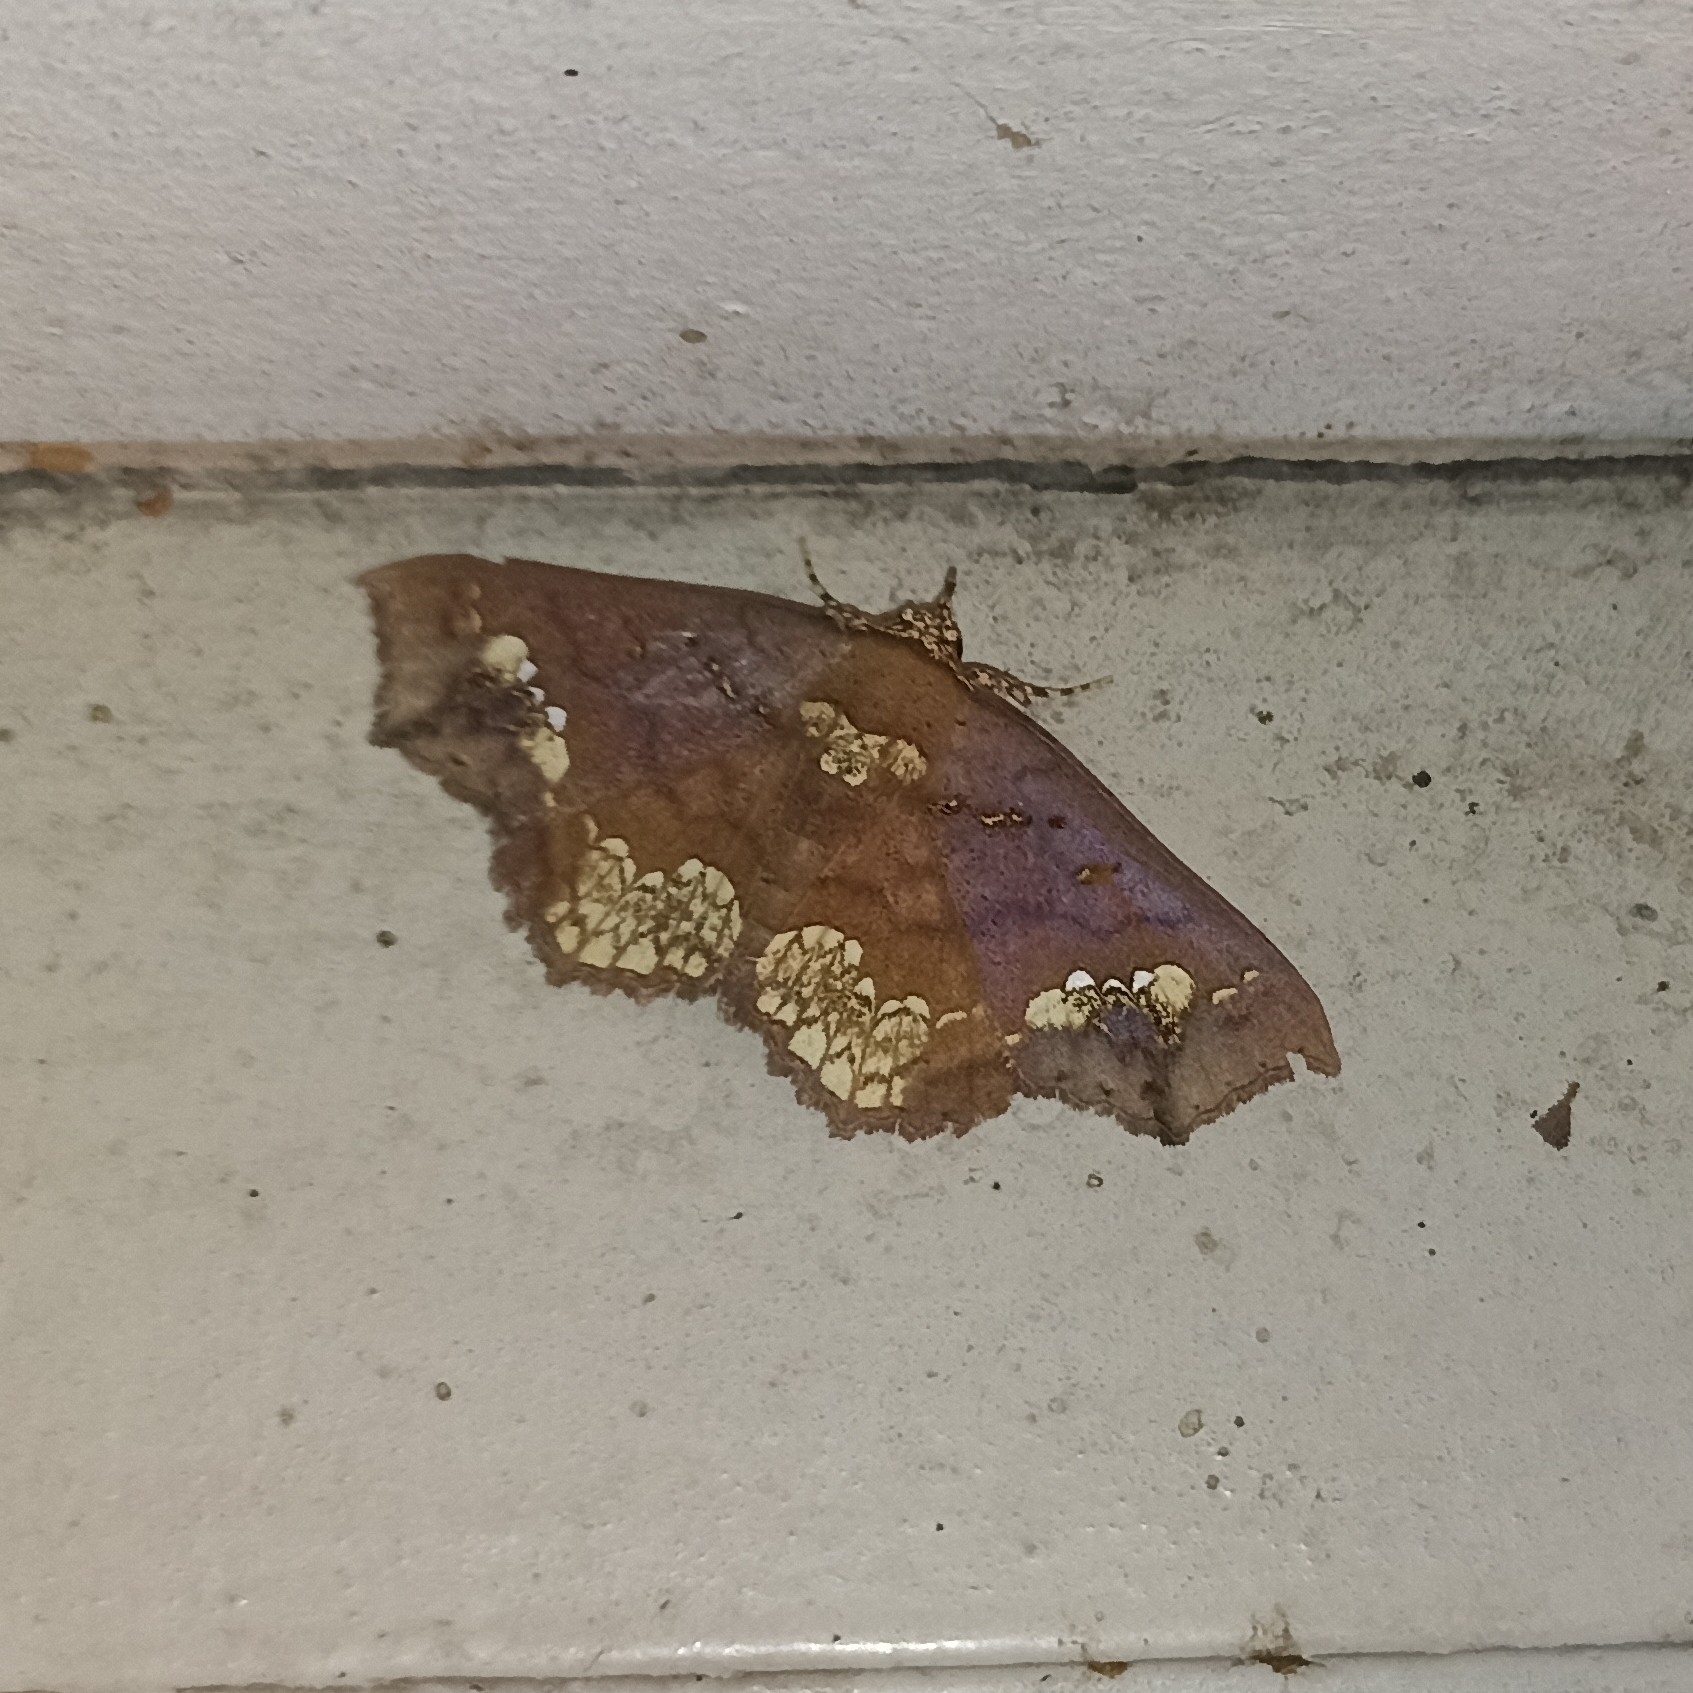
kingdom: Animalia
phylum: Arthropoda
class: Insecta
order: Lepidoptera
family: Erebidae
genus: Lopharthrum
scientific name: Lopharthrum comprimens
